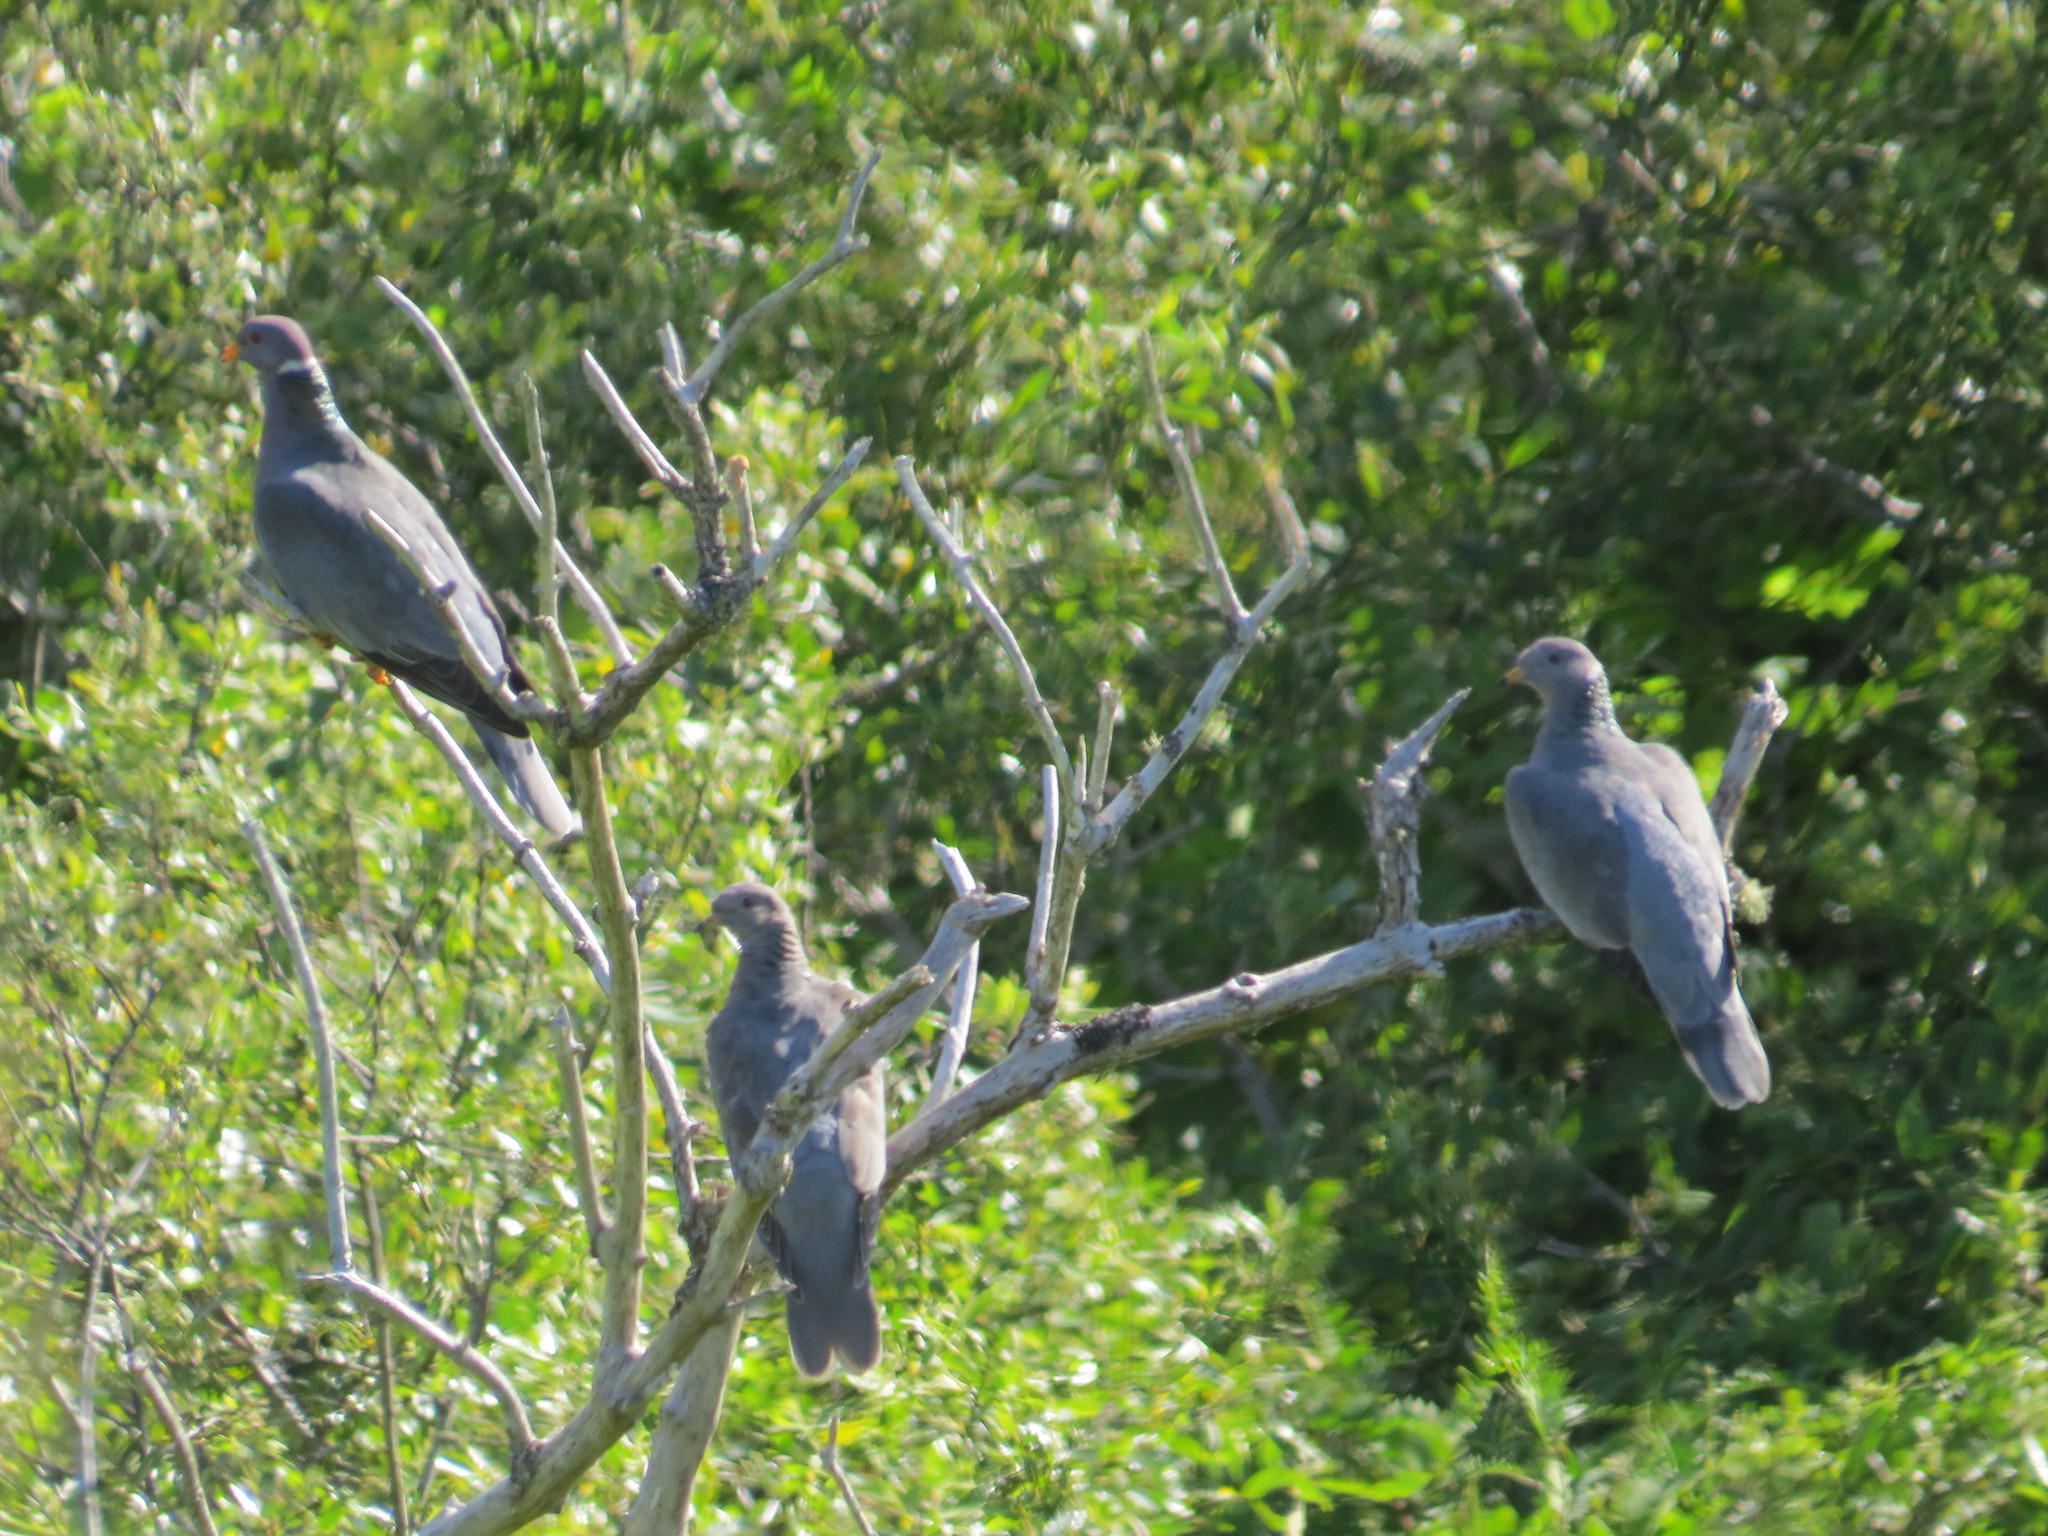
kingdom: Animalia
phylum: Chordata
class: Aves
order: Columbiformes
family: Columbidae
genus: Patagioenas
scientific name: Patagioenas fasciata
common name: Band-tailed pigeon
